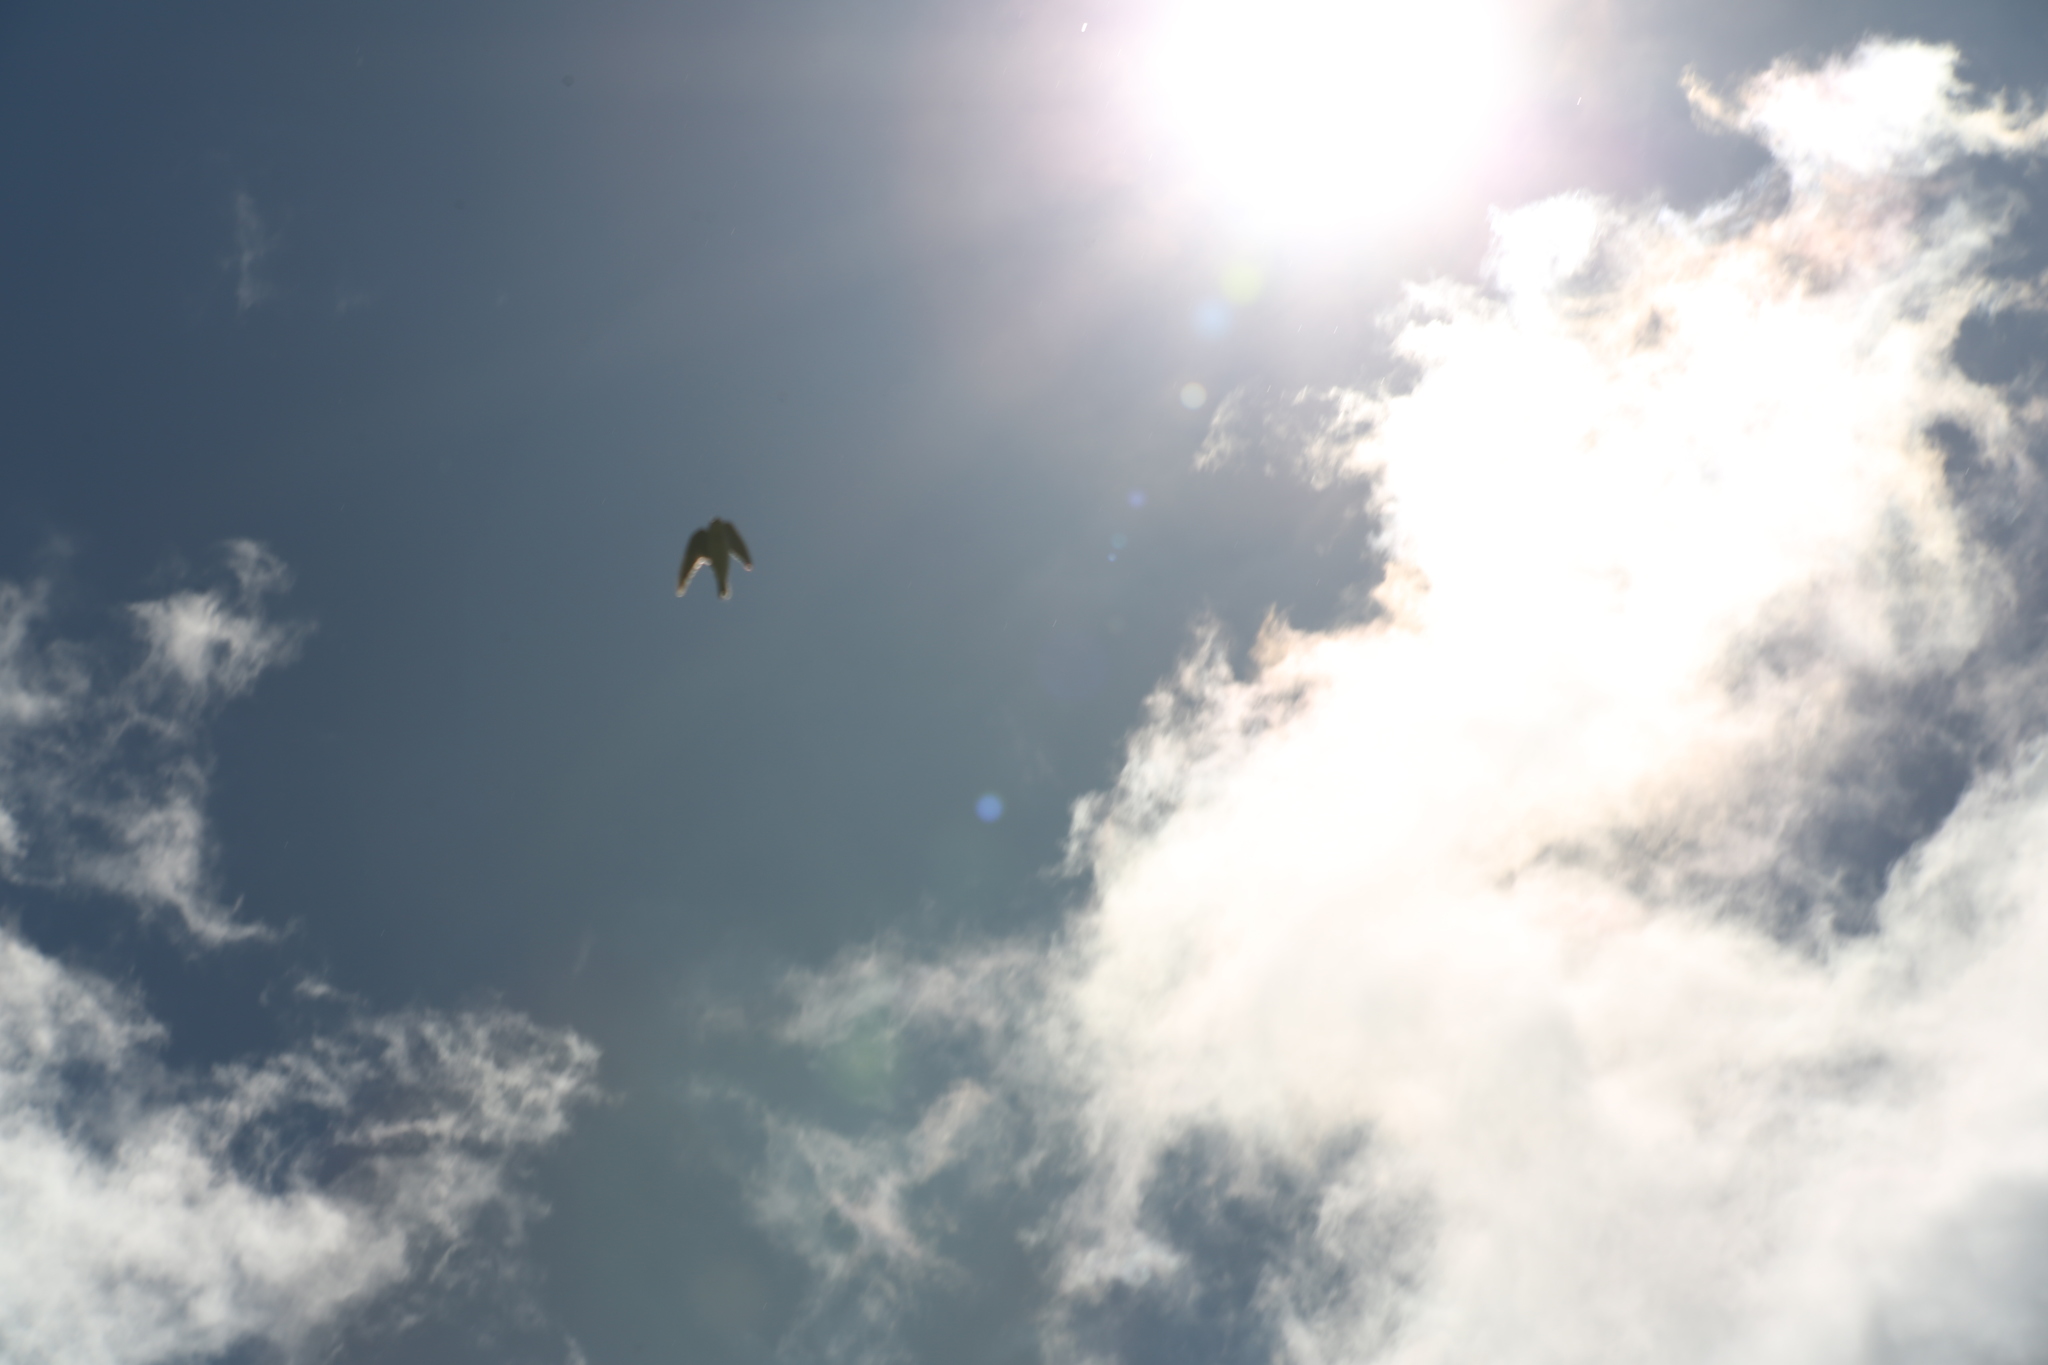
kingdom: Animalia
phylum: Chordata
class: Aves
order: Passeriformes
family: Hirundinidae
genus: Tachycineta
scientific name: Tachycineta bicolor
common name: Tree swallow
